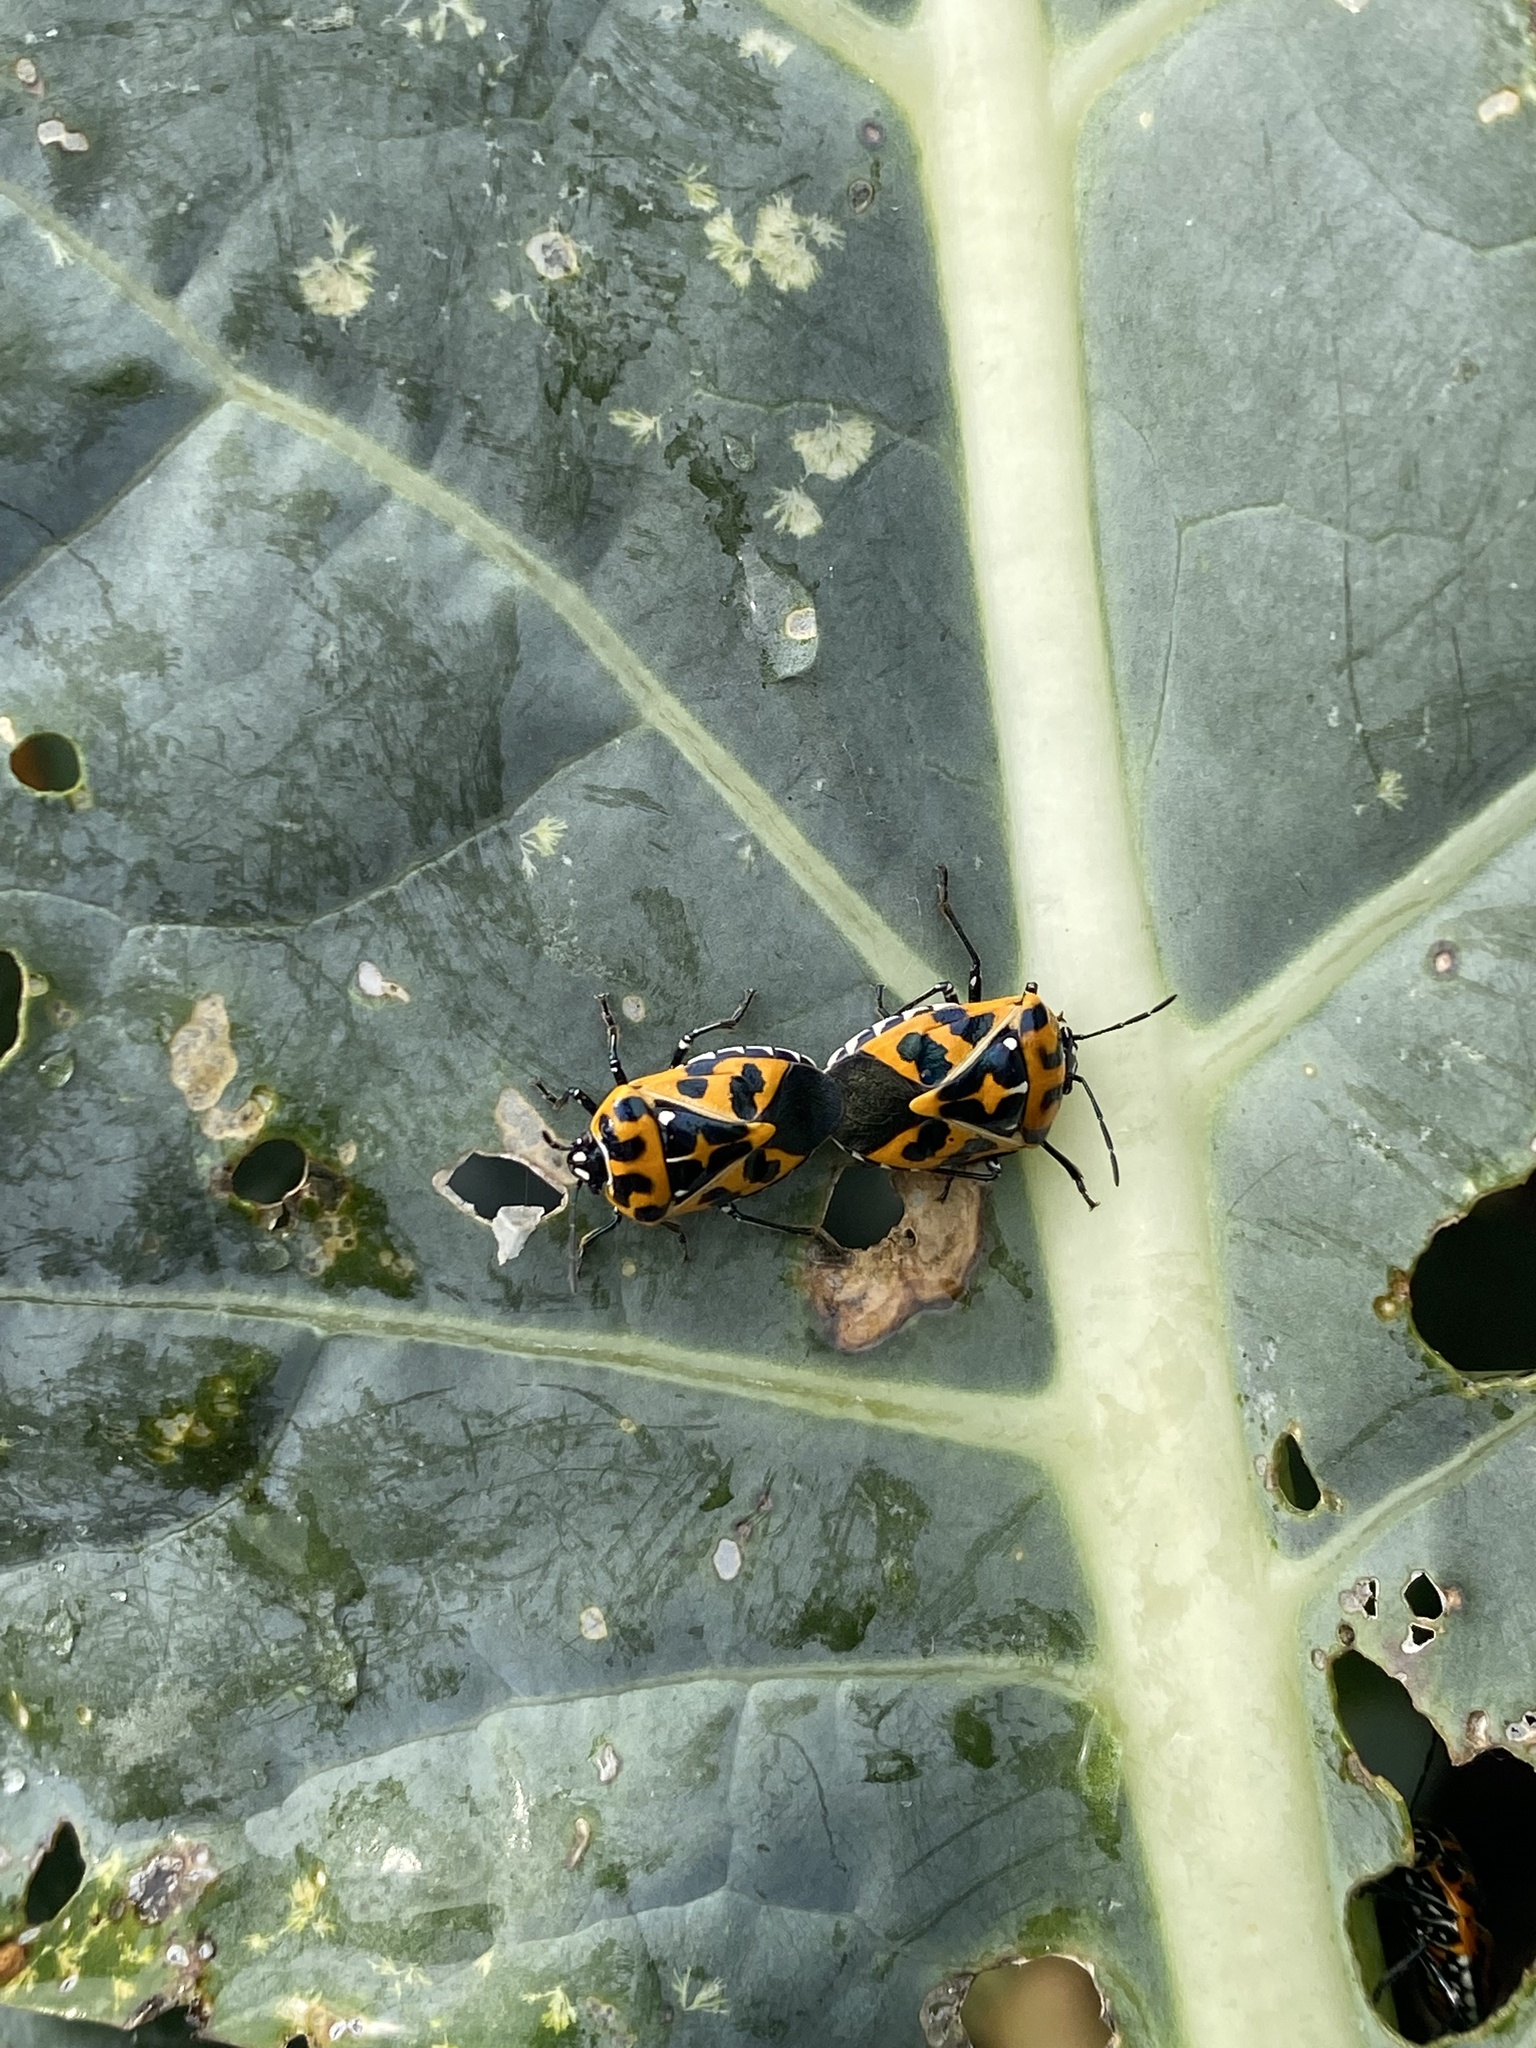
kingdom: Animalia
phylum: Arthropoda
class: Insecta
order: Hemiptera
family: Pentatomidae
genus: Murgantia
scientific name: Murgantia histrionica
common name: Harlequin bug
